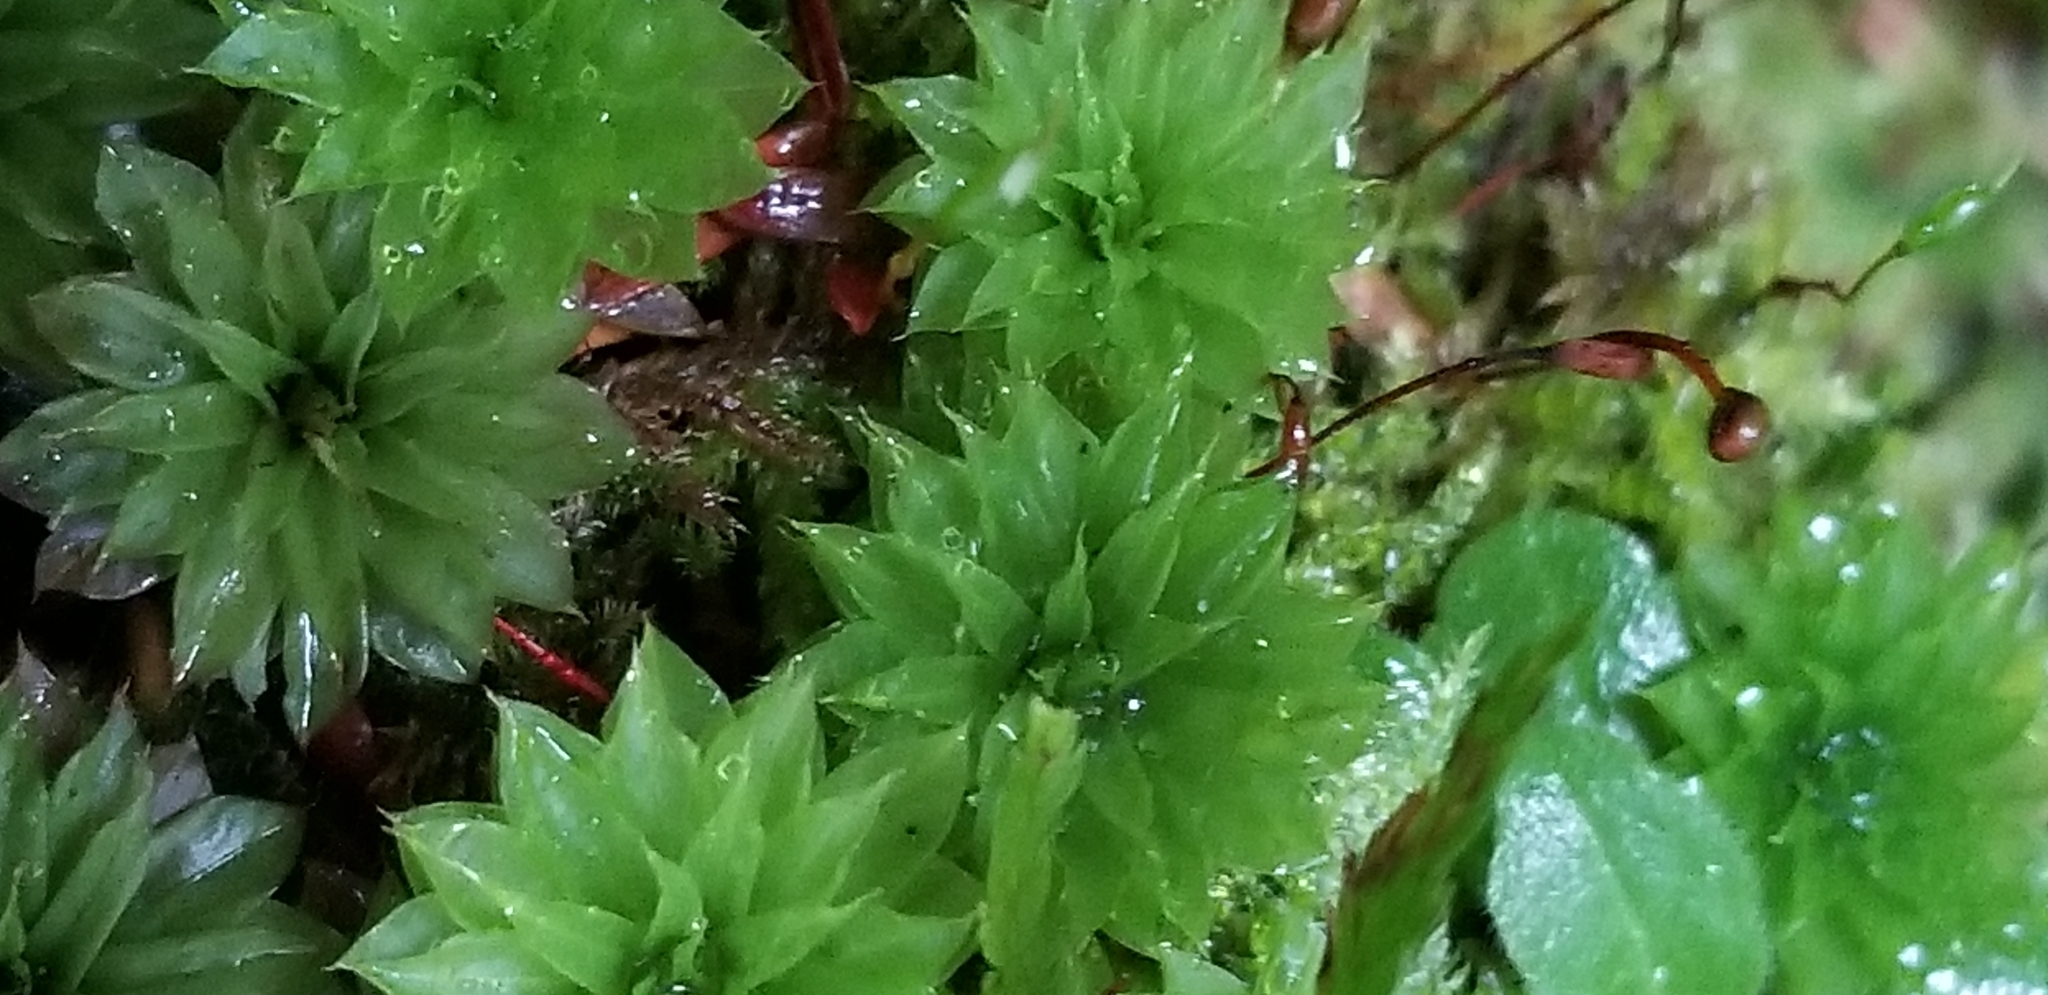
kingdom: Plantae
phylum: Bryophyta
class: Bryopsida
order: Bryales
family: Bryaceae
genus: Rhodobryum
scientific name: Rhodobryum ontariense
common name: Ontario rhodobryum moss
